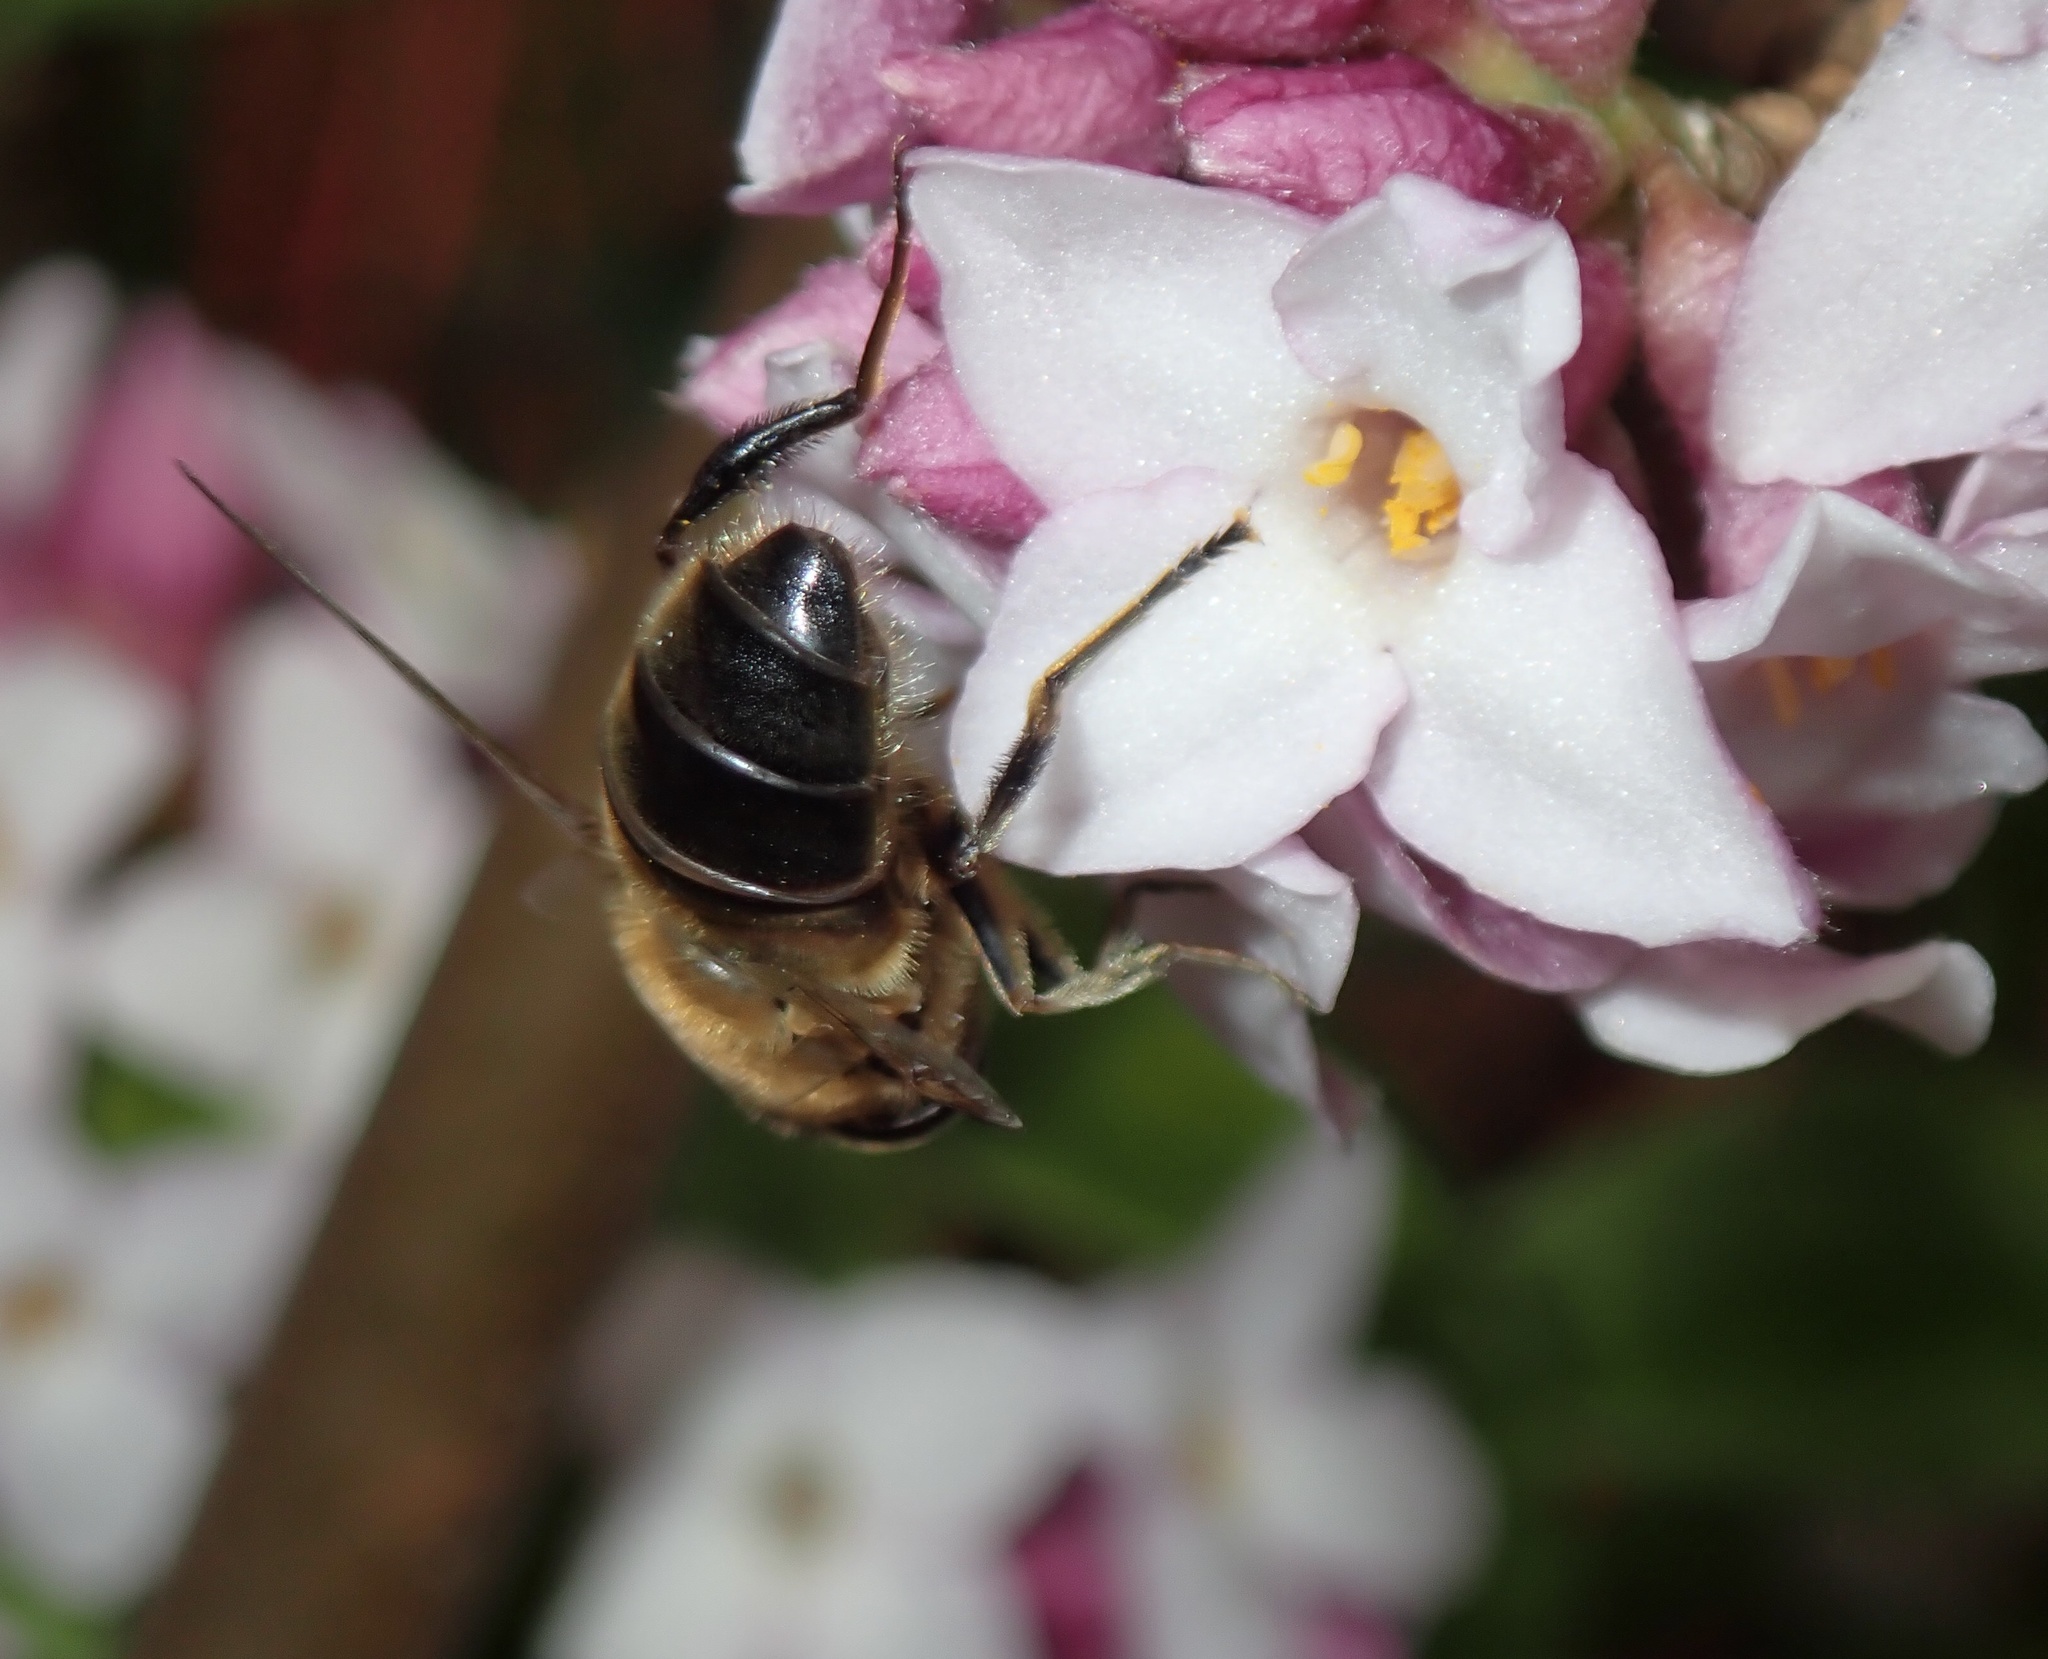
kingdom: Animalia
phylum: Arthropoda
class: Insecta
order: Diptera
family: Syrphidae
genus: Eristalis
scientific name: Eristalis tenax
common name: Drone fly
